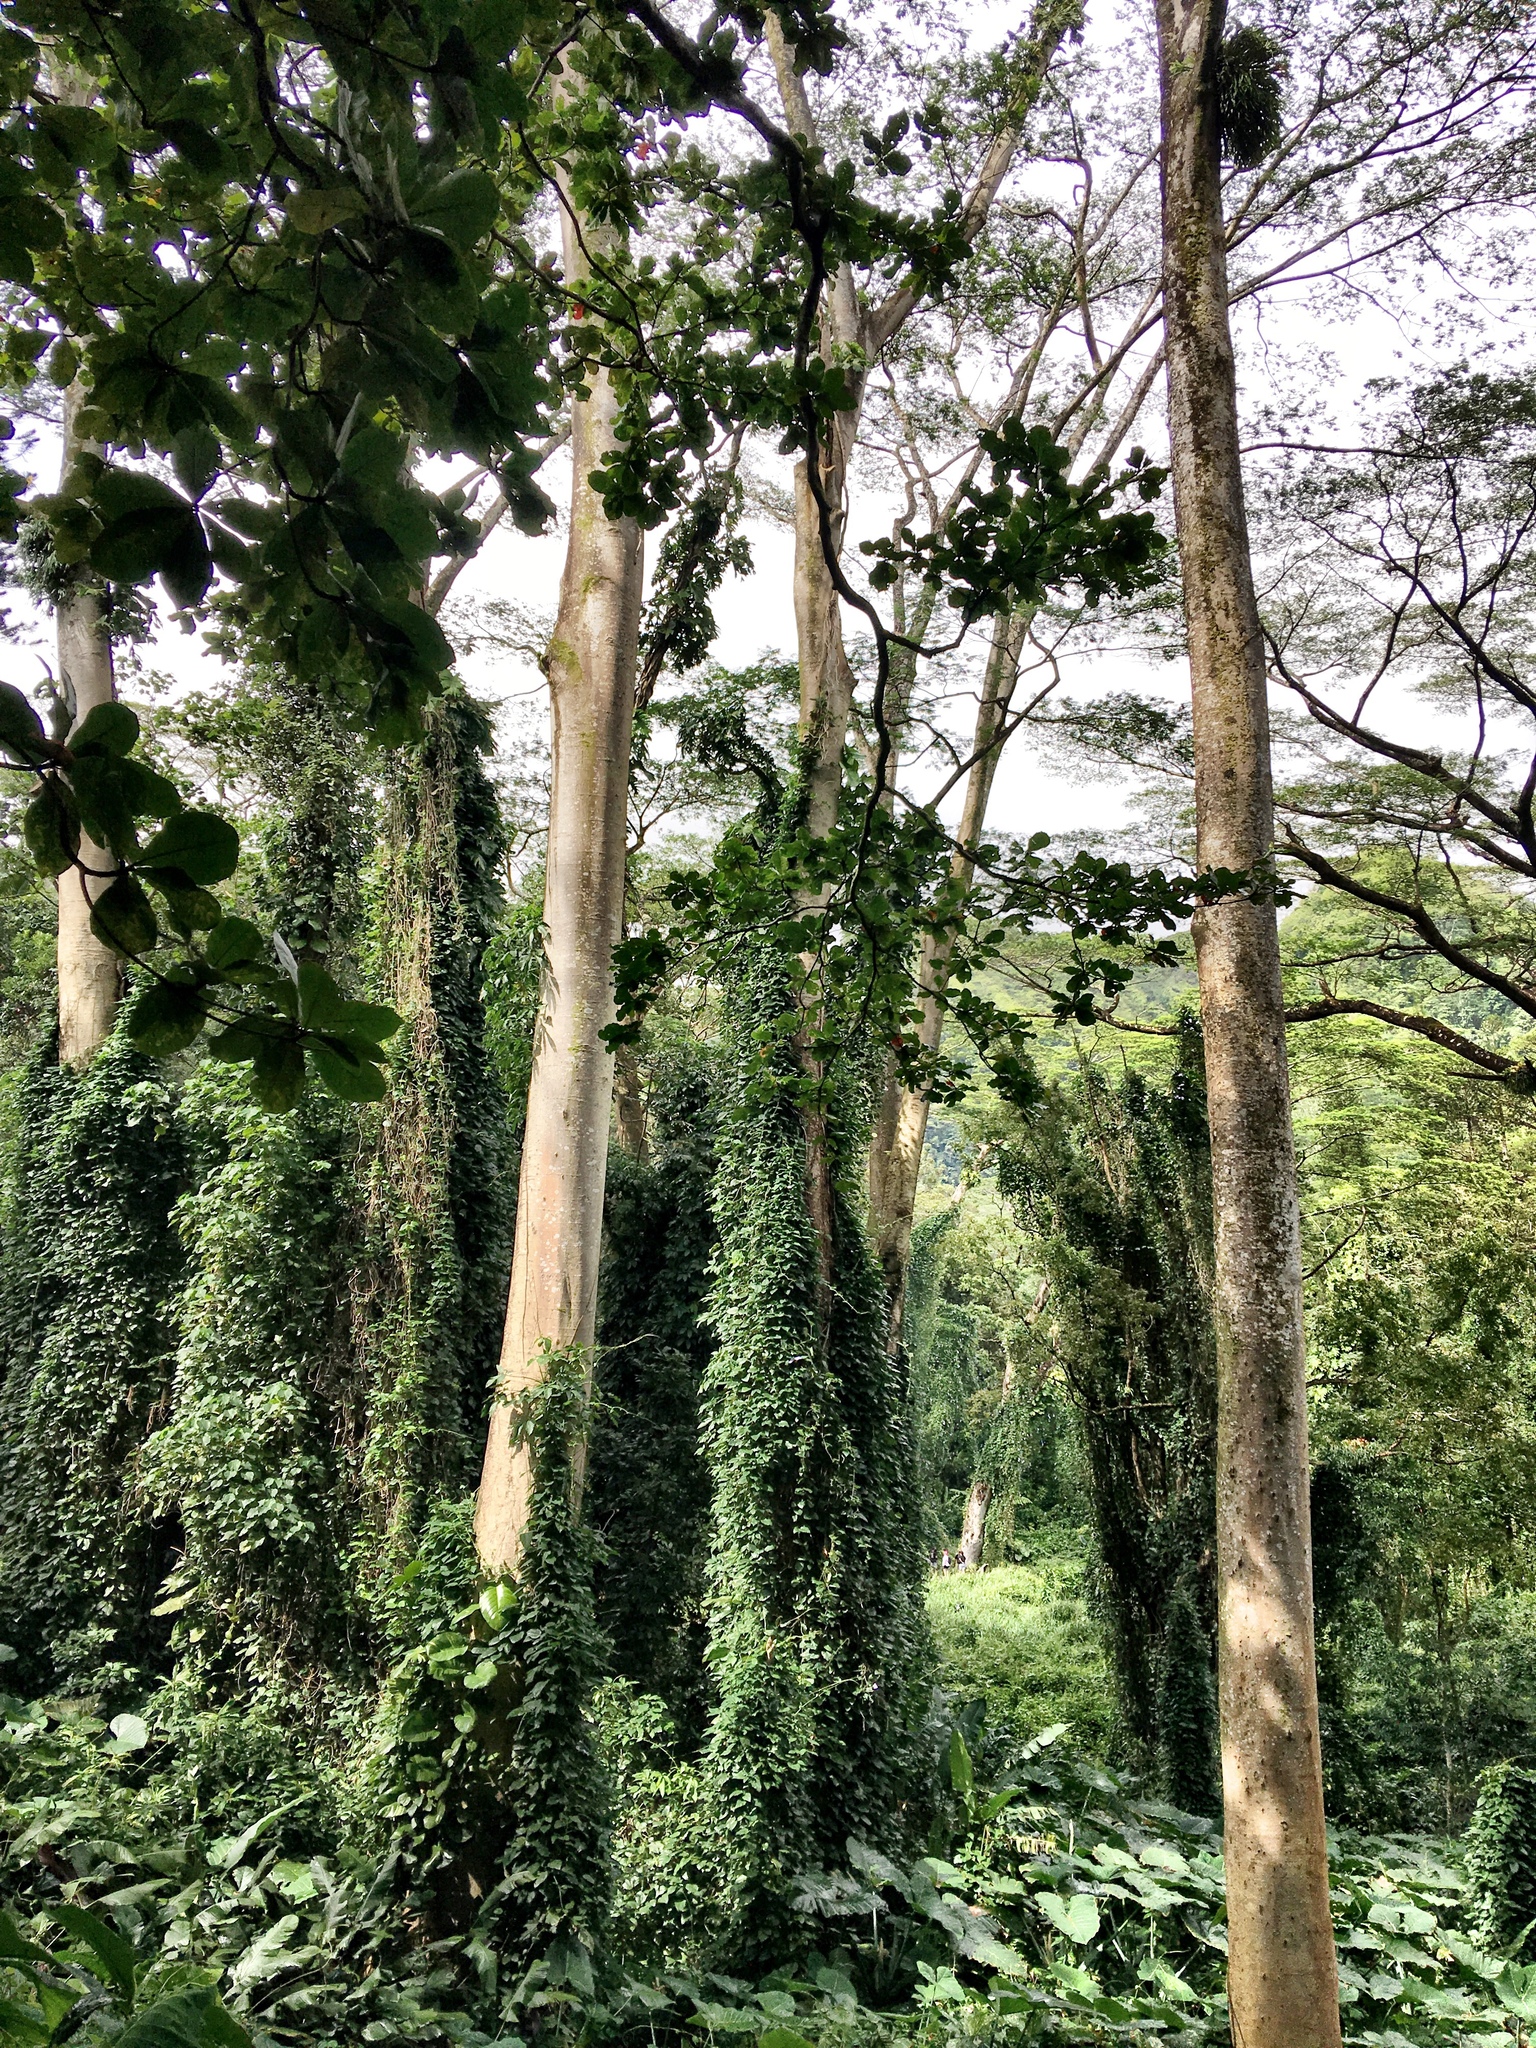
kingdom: Plantae
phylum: Tracheophyta
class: Magnoliopsida
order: Fabales
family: Fabaceae
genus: Falcataria
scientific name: Falcataria falcata
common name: Moluccan albizia
